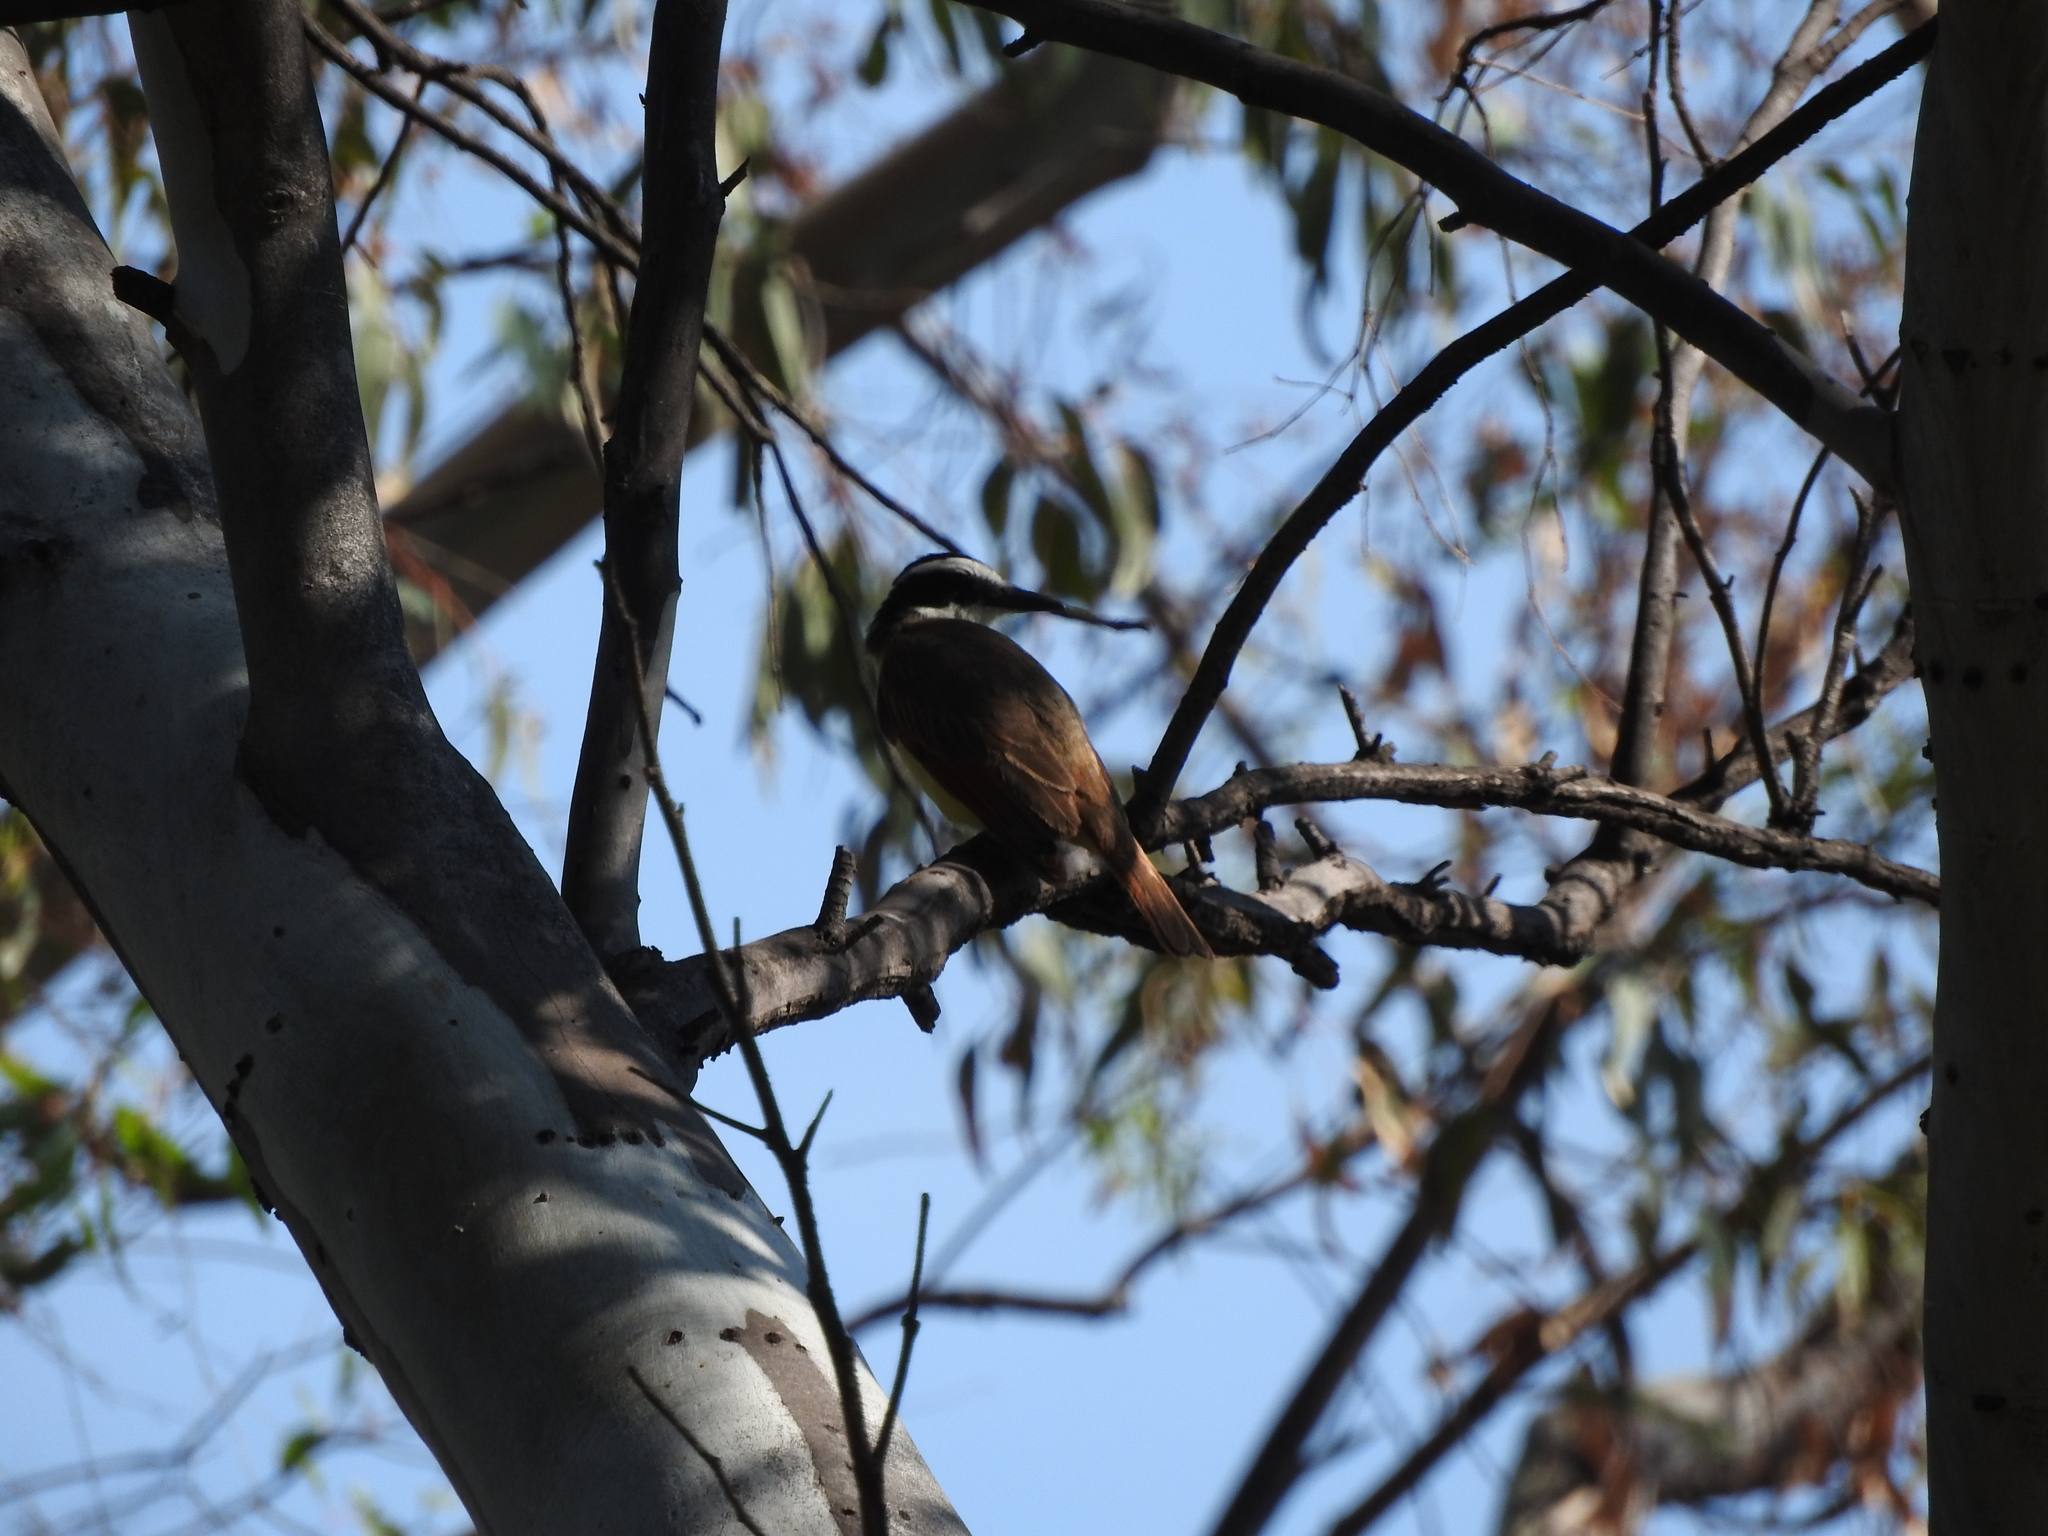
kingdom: Animalia
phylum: Chordata
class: Aves
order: Passeriformes
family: Tyrannidae
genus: Pitangus
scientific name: Pitangus sulphuratus
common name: Great kiskadee
